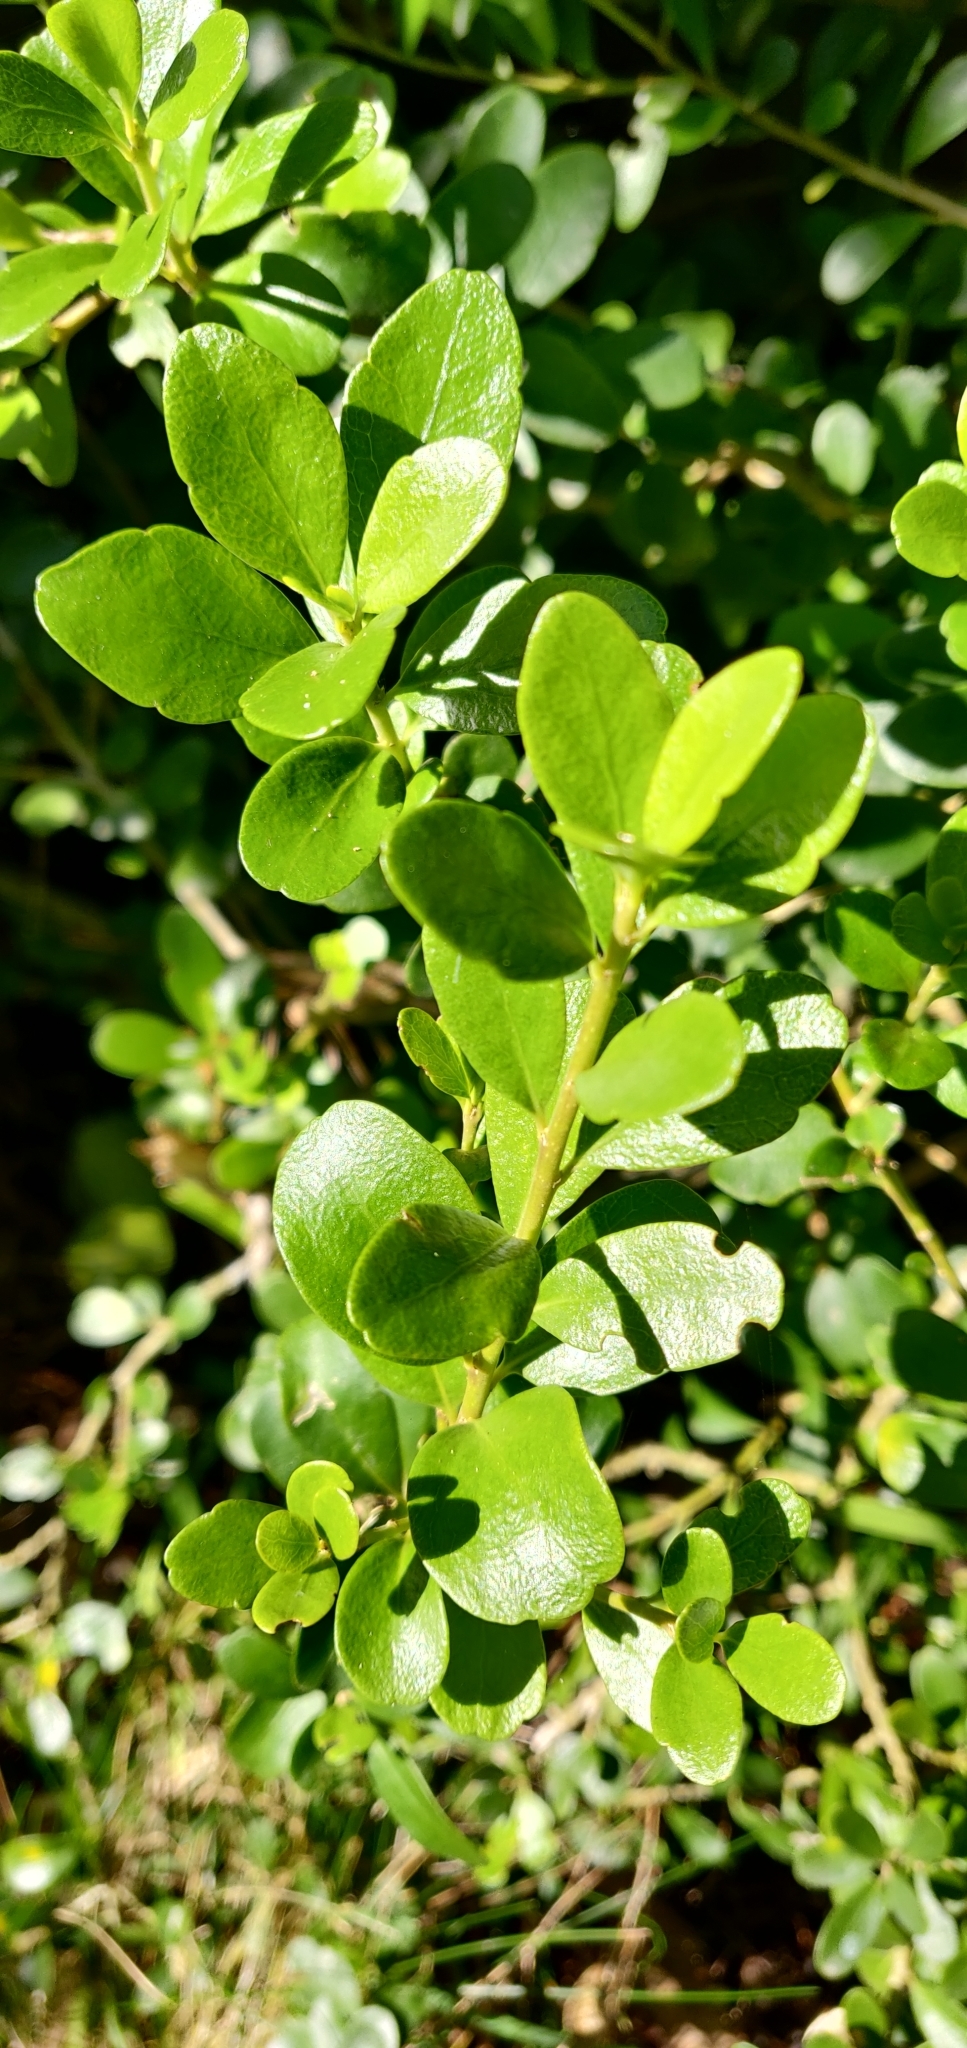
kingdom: Plantae
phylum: Tracheophyta
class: Magnoliopsida
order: Malpighiales
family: Violaceae
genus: Melicytus
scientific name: Melicytus orarius
